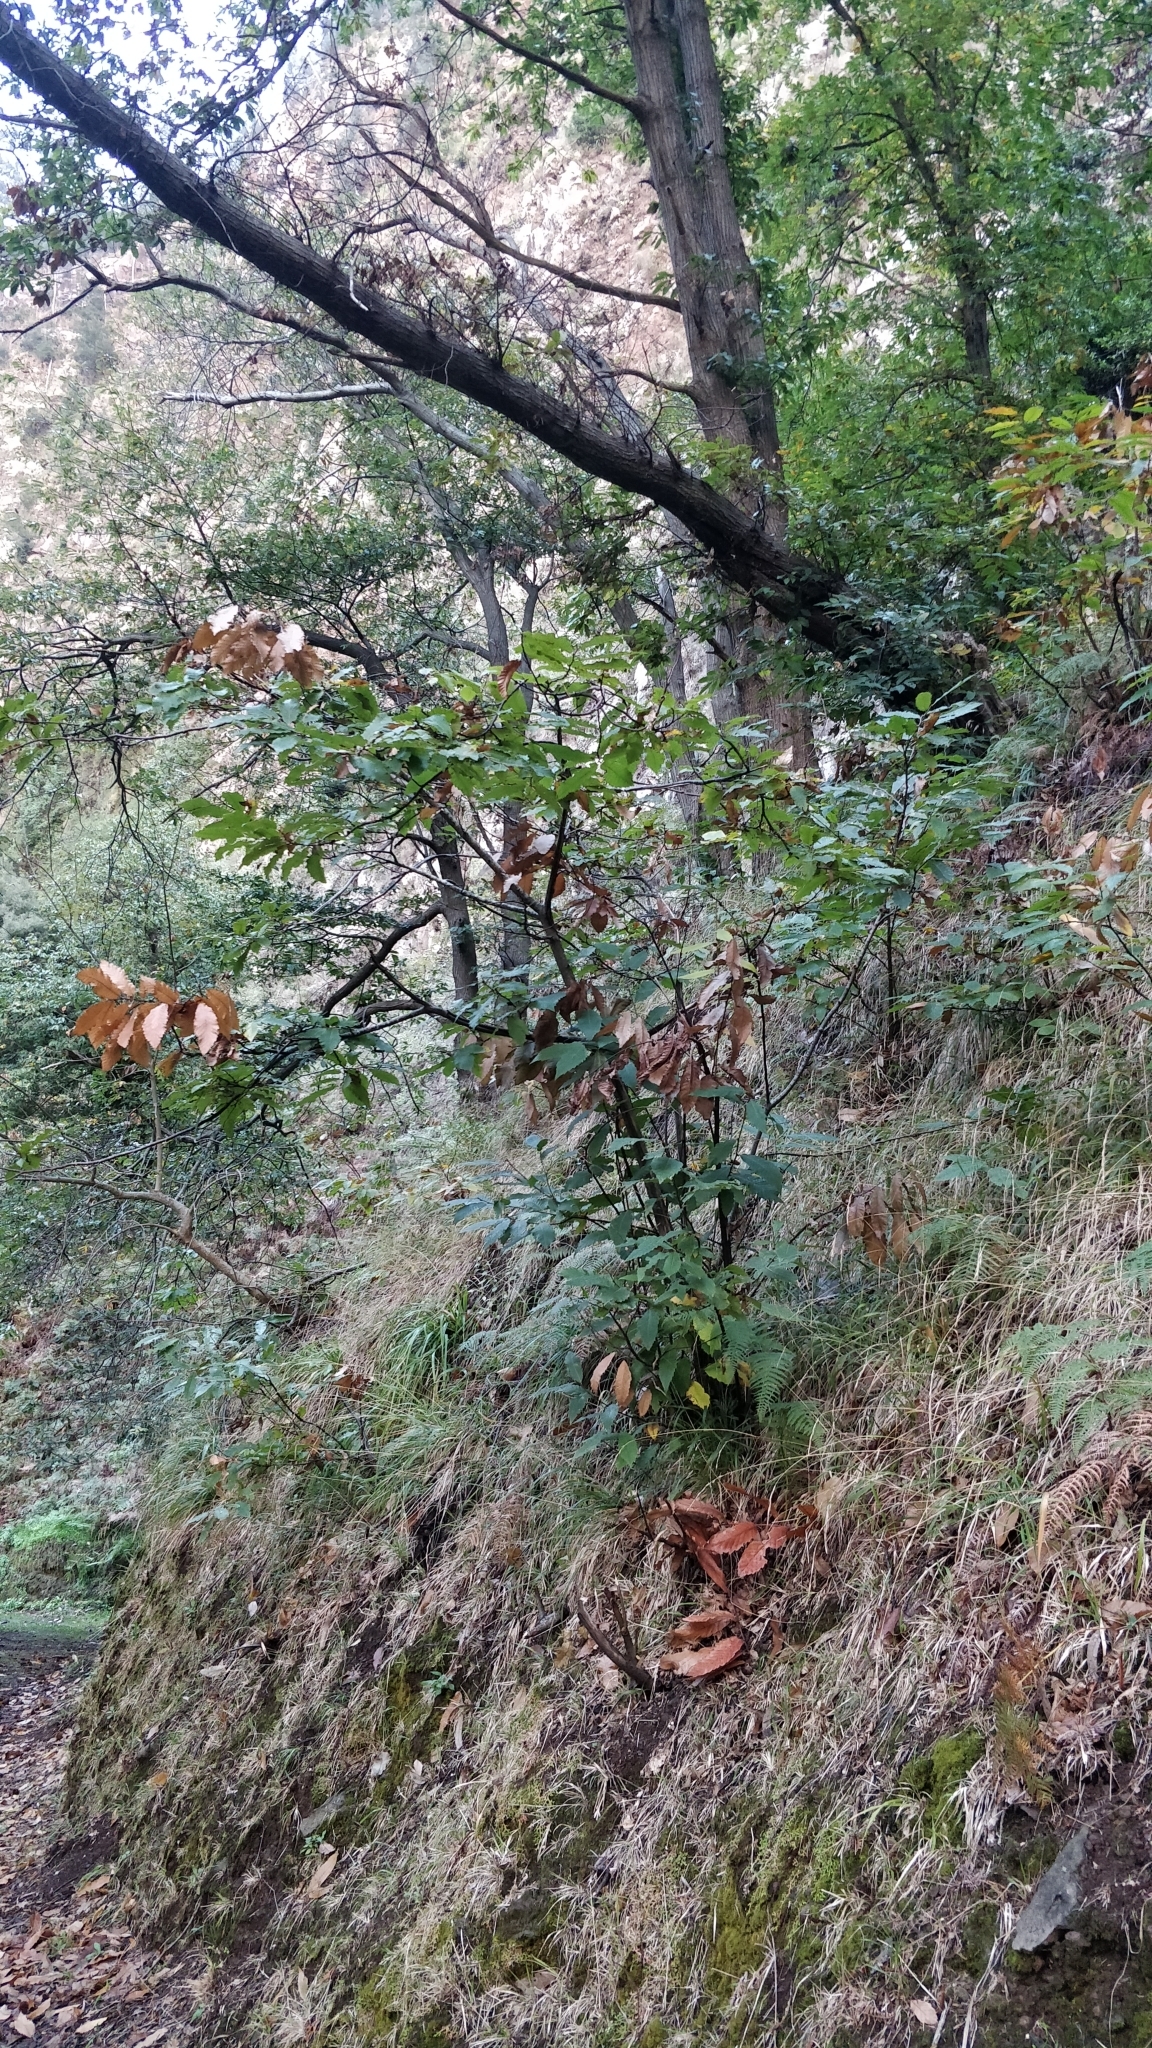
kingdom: Plantae
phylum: Tracheophyta
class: Magnoliopsida
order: Fagales
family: Fagaceae
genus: Castanea
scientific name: Castanea sativa
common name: Sweet chestnut
